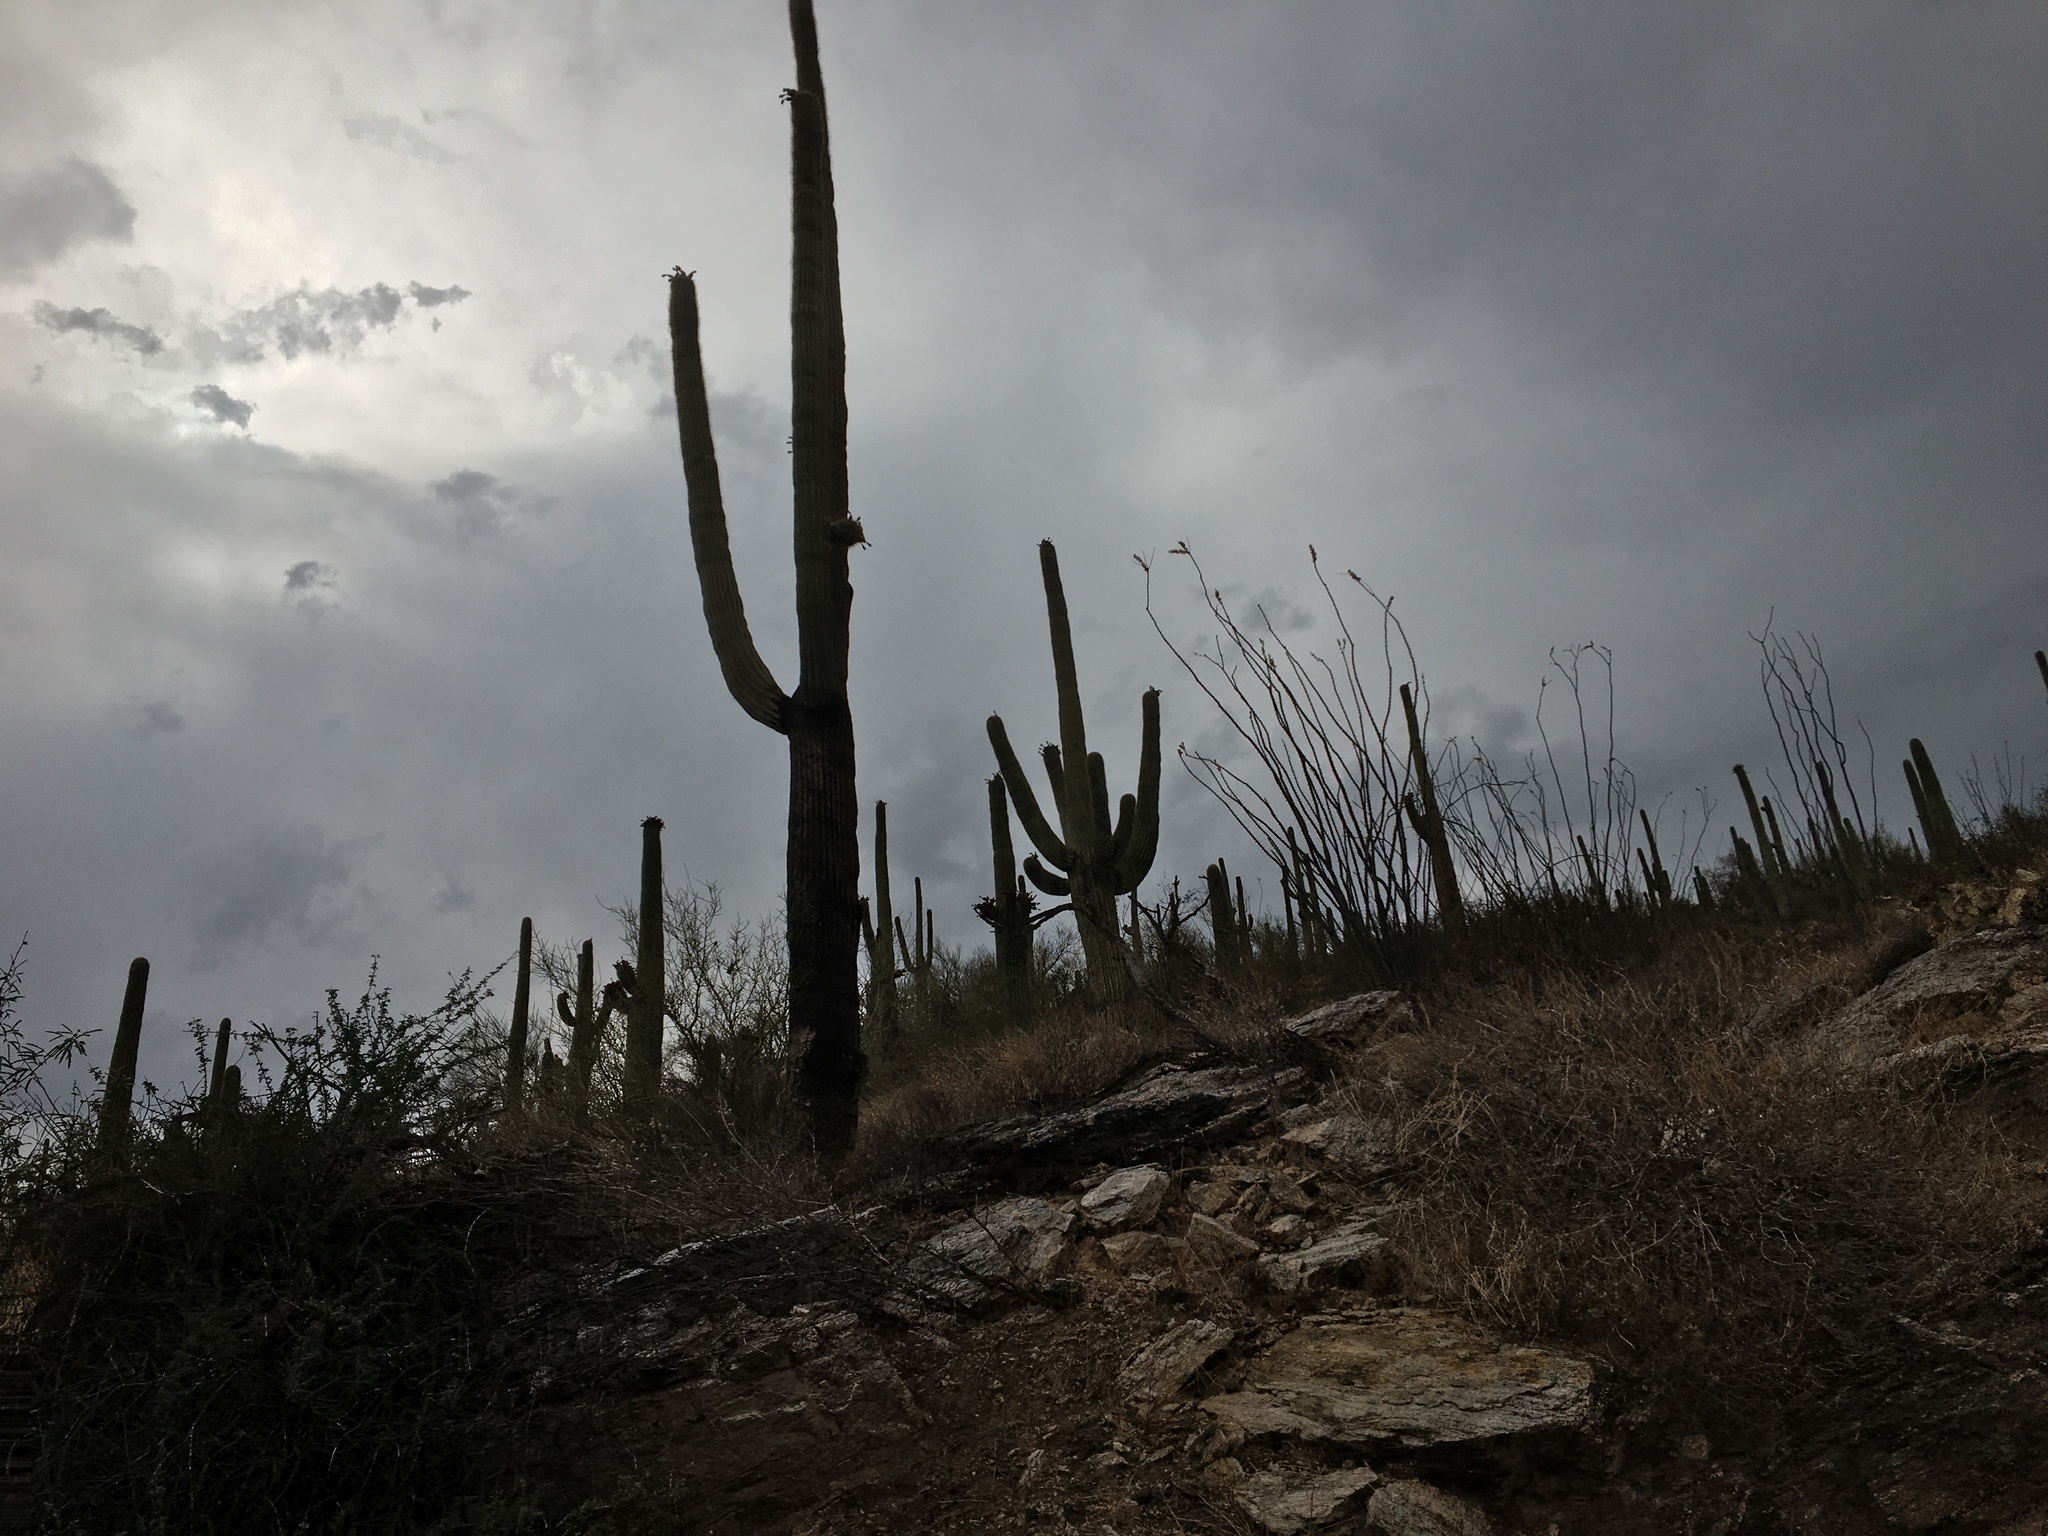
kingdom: Plantae
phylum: Tracheophyta
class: Magnoliopsida
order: Caryophyllales
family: Cactaceae
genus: Carnegiea
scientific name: Carnegiea gigantea
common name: Saguaro
